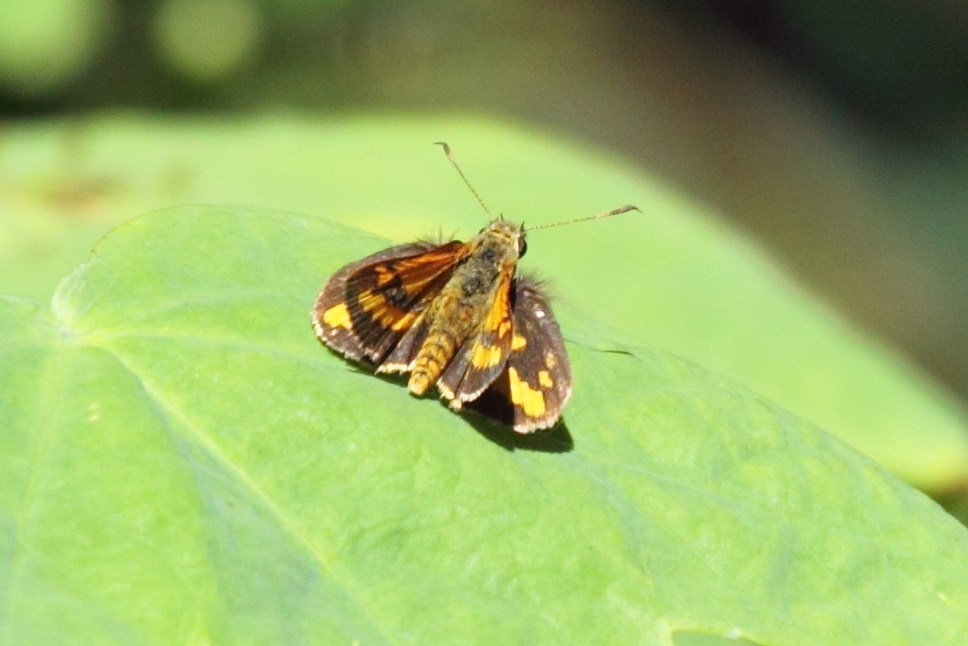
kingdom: Animalia
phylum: Arthropoda
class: Insecta
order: Lepidoptera
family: Hesperiidae
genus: Suniana
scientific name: Suniana sunias
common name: Wide-brand grass-dart
